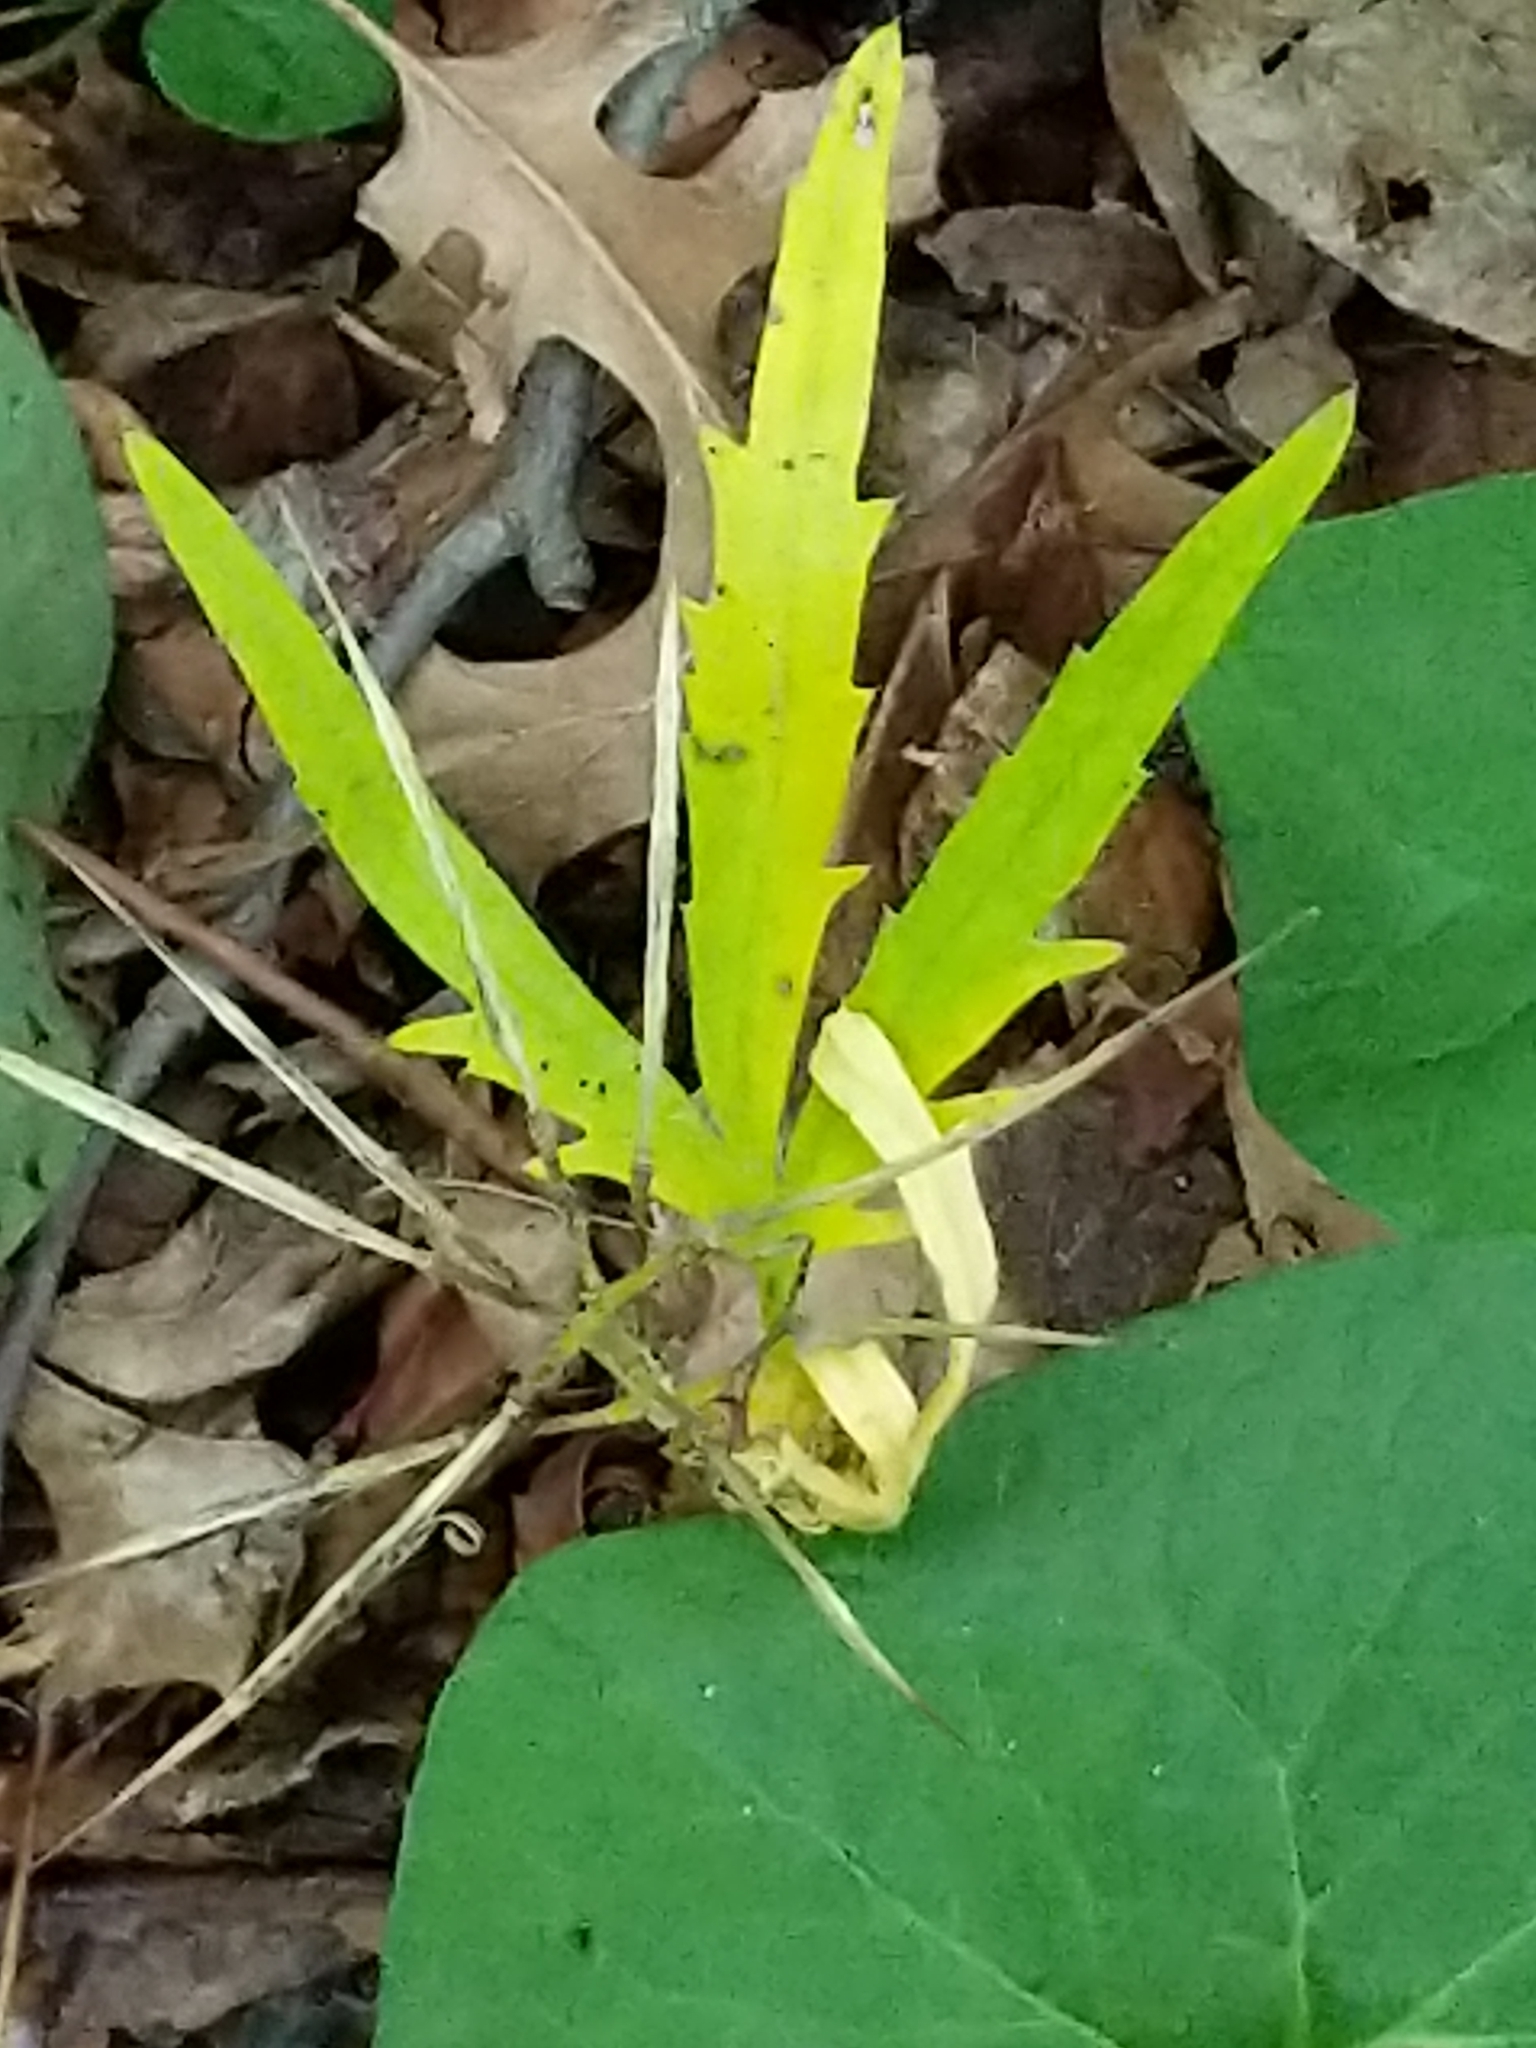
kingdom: Plantae
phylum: Tracheophyta
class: Magnoliopsida
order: Brassicales
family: Brassicaceae
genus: Cardamine
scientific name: Cardamine concatenata
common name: Cut-leaf toothcup
